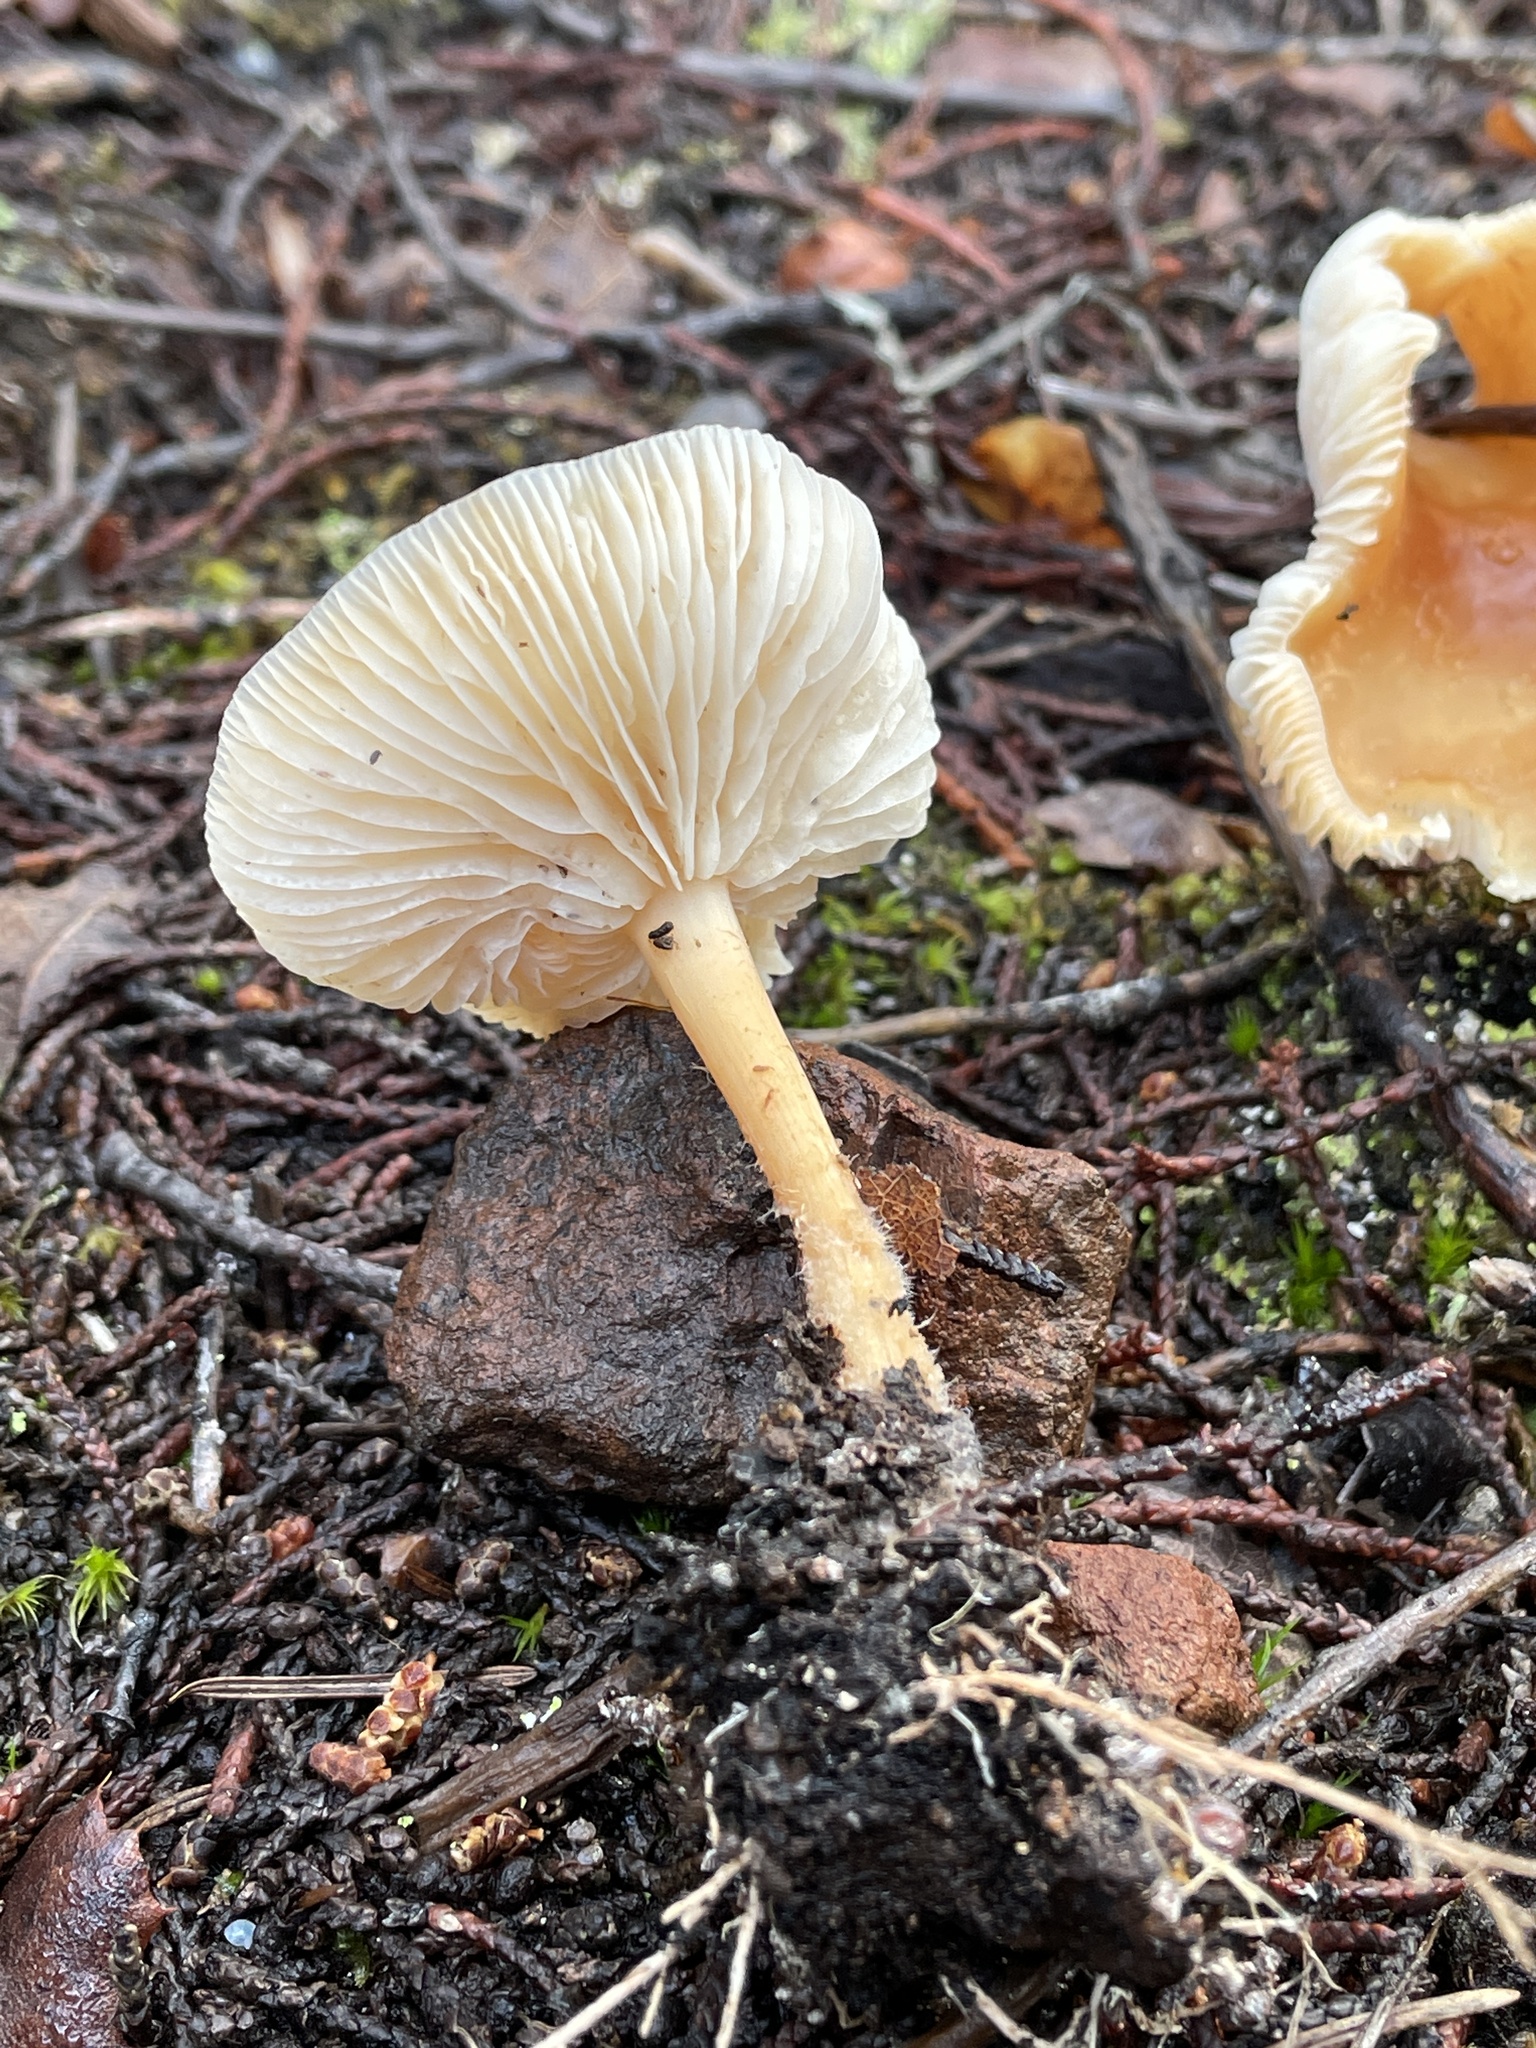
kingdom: Fungi
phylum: Basidiomycota
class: Agaricomycetes
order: Agaricales
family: Omphalotaceae
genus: Gymnopus
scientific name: Gymnopus dryophilus
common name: Penny top
